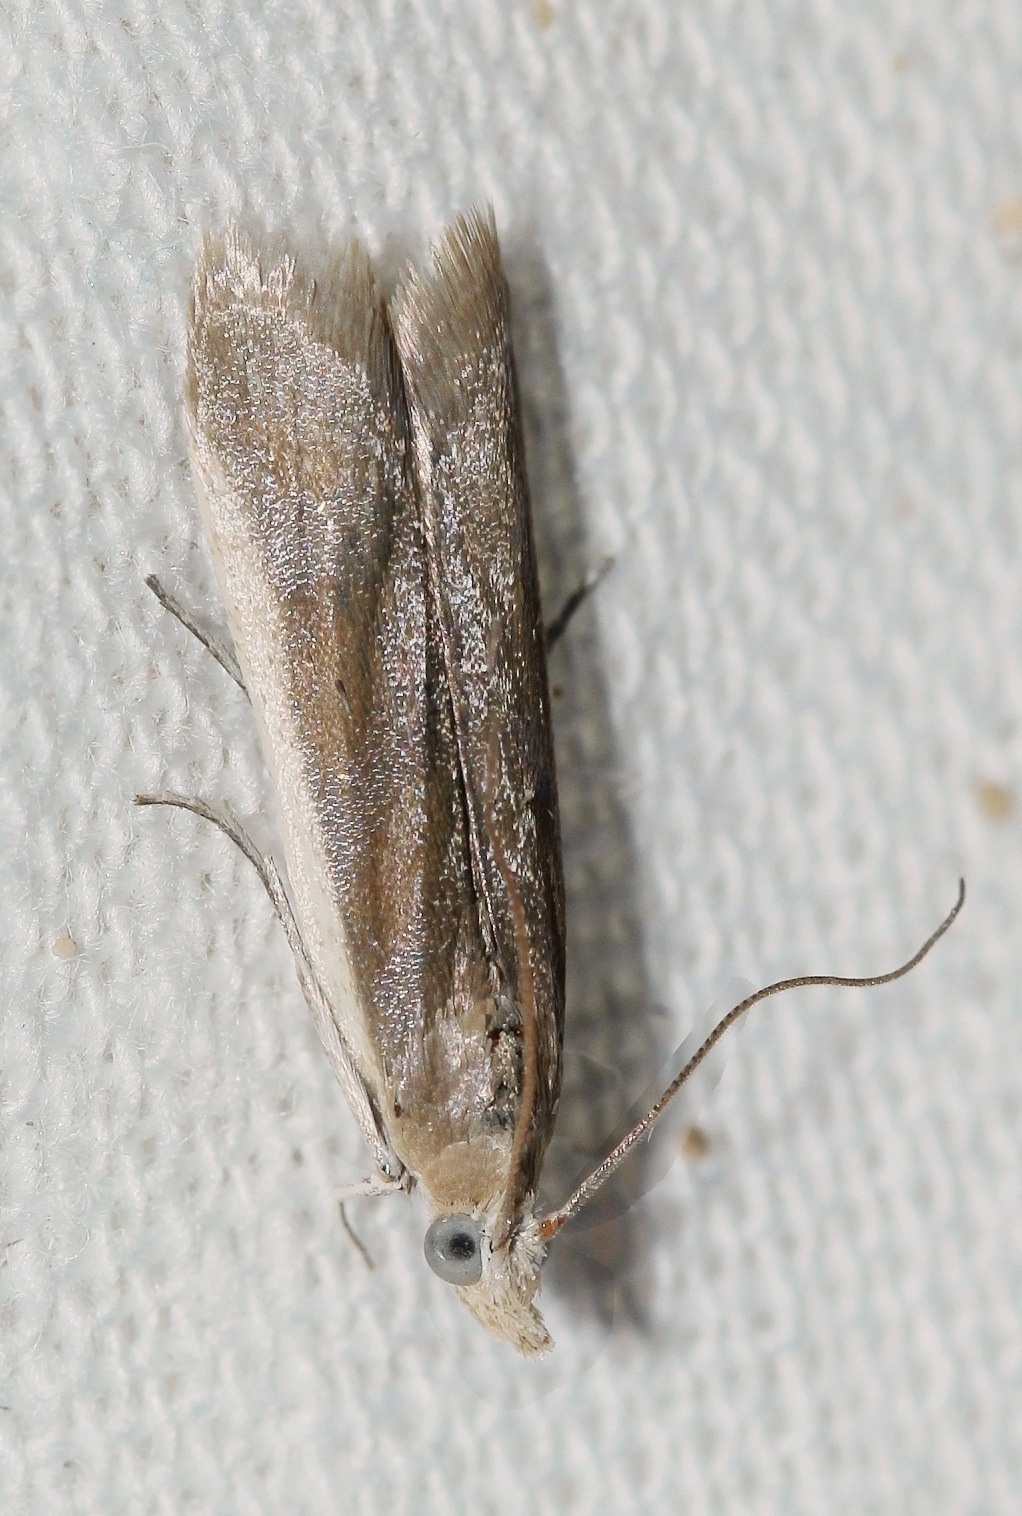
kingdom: Animalia
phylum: Arthropoda
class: Insecta
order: Lepidoptera
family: Pyralidae
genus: Ancylosis
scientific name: Ancylosis albicosta
